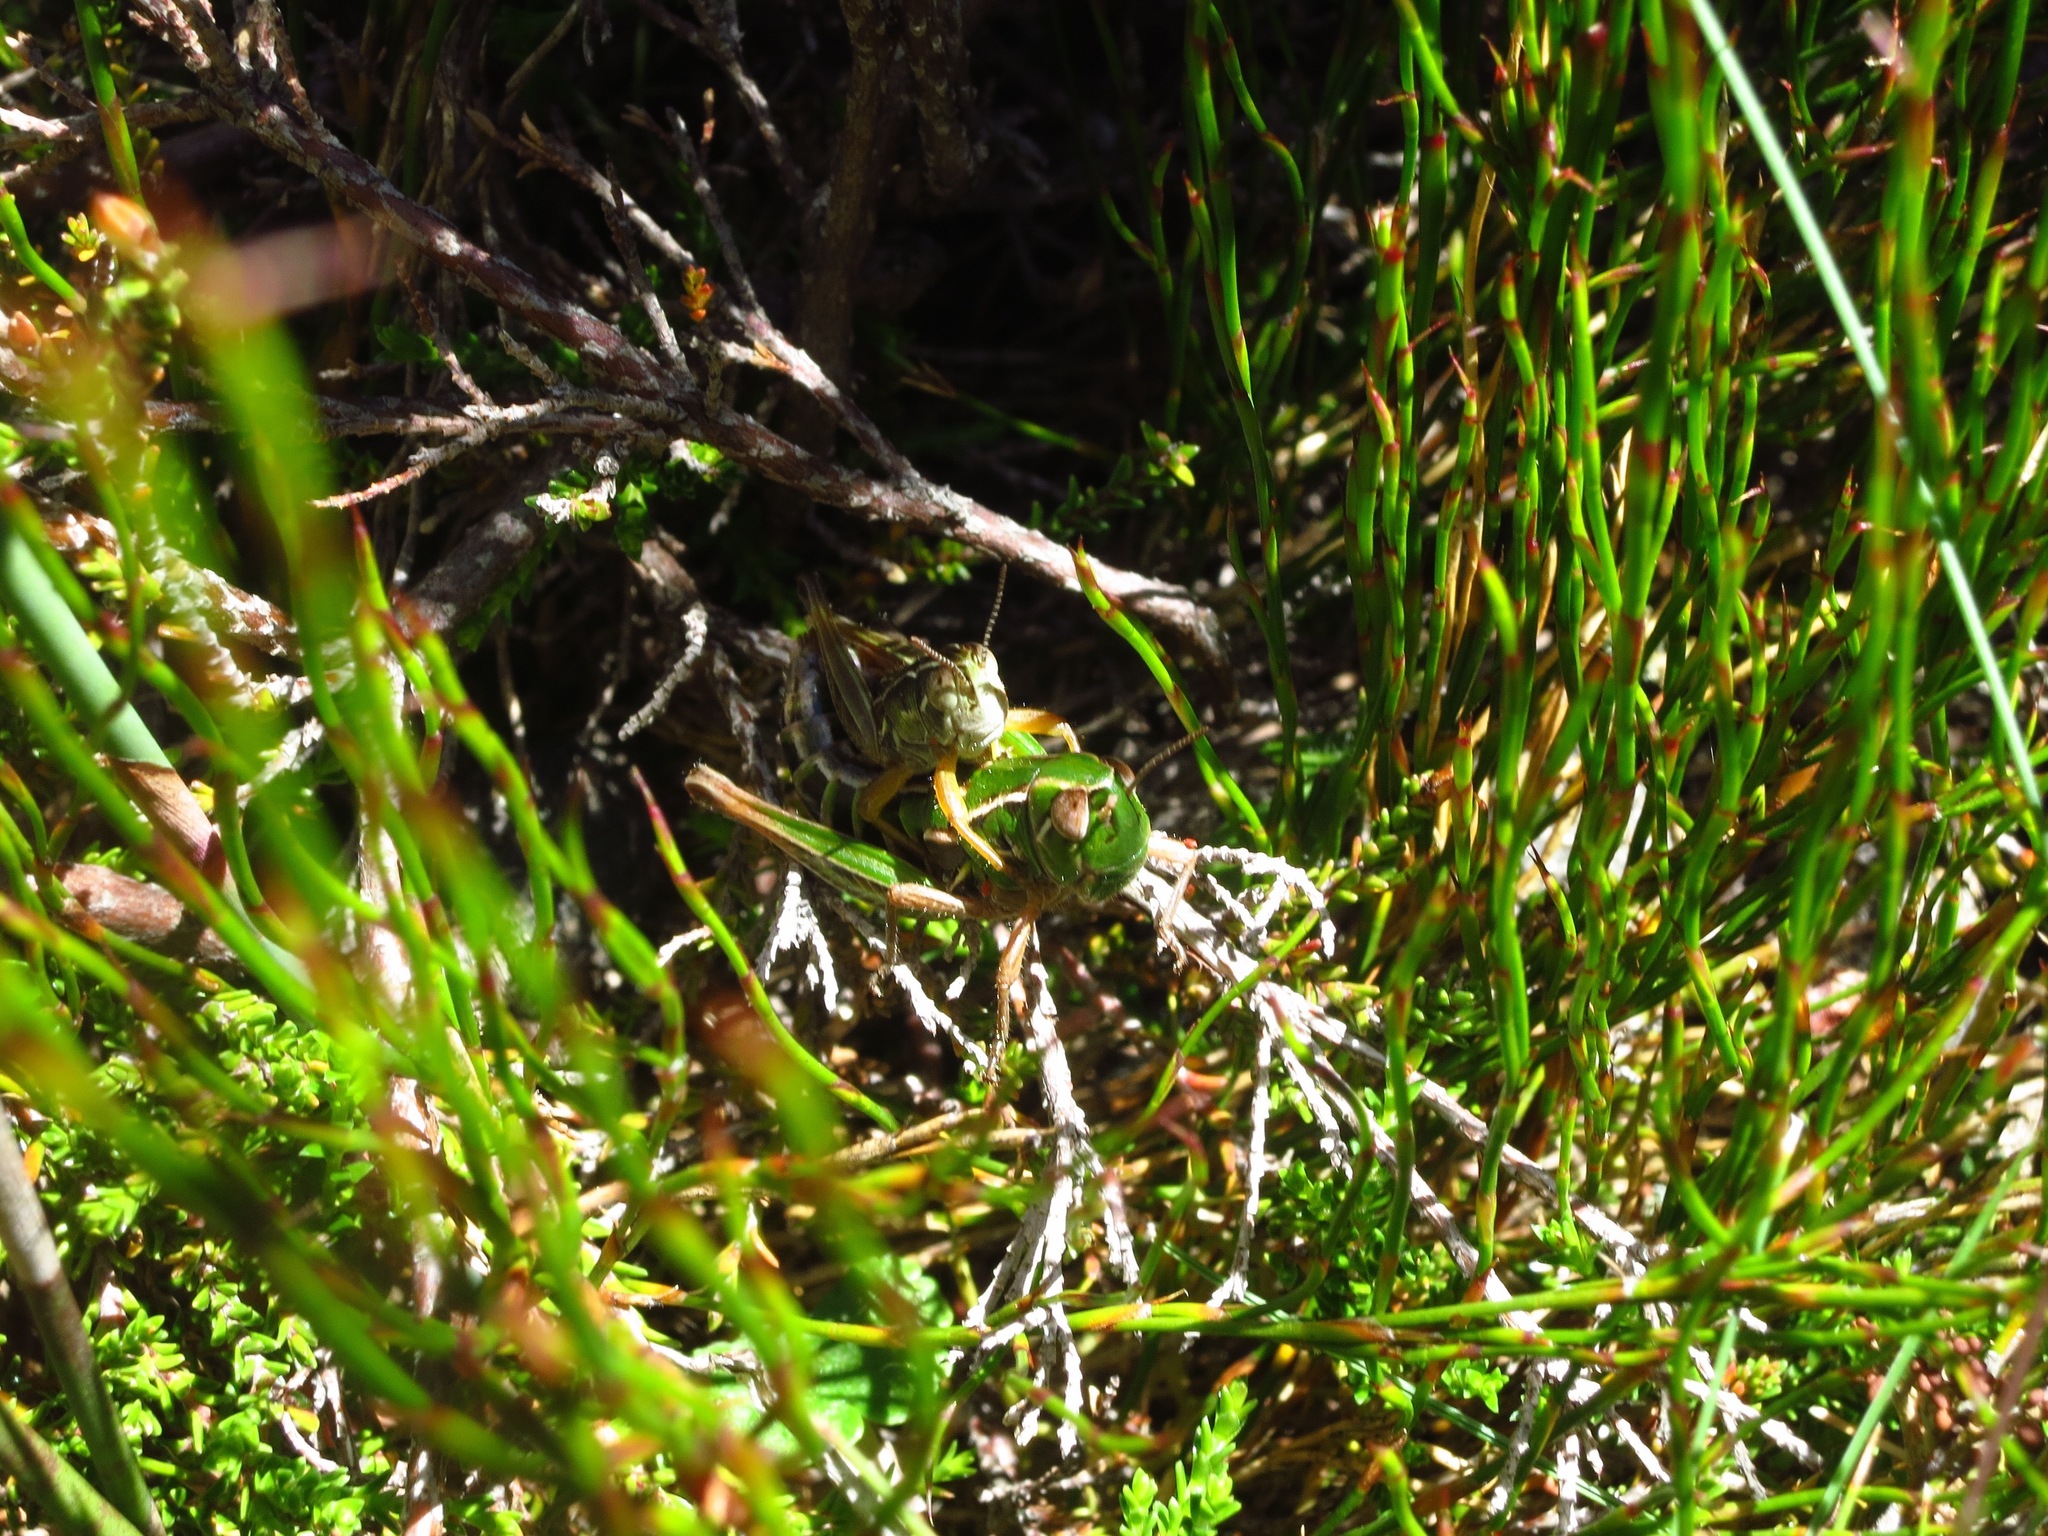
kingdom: Animalia
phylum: Arthropoda
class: Insecta
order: Orthoptera
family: Acrididae
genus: Kosciuscola
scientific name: Kosciuscola tasmanicus
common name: Tasmanian skyhopper
